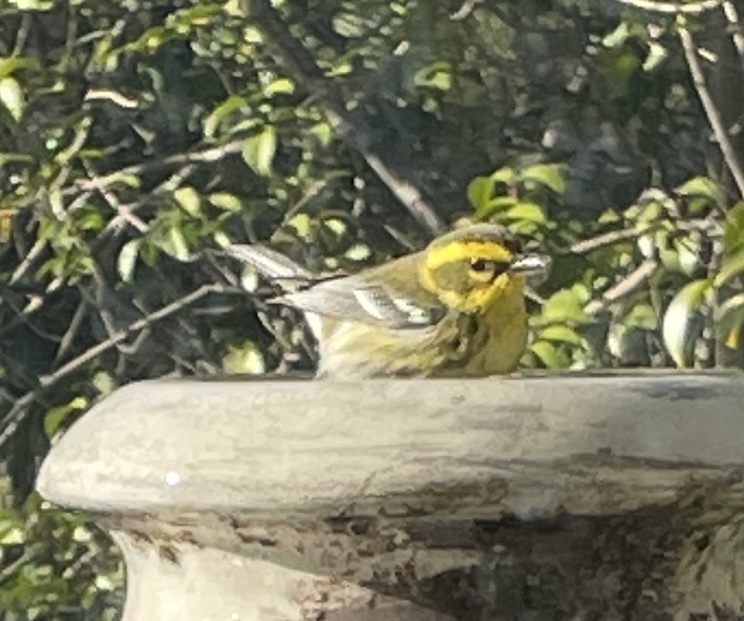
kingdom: Animalia
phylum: Chordata
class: Aves
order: Passeriformes
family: Parulidae
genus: Setophaga
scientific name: Setophaga townsendi
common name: Townsend's warbler
